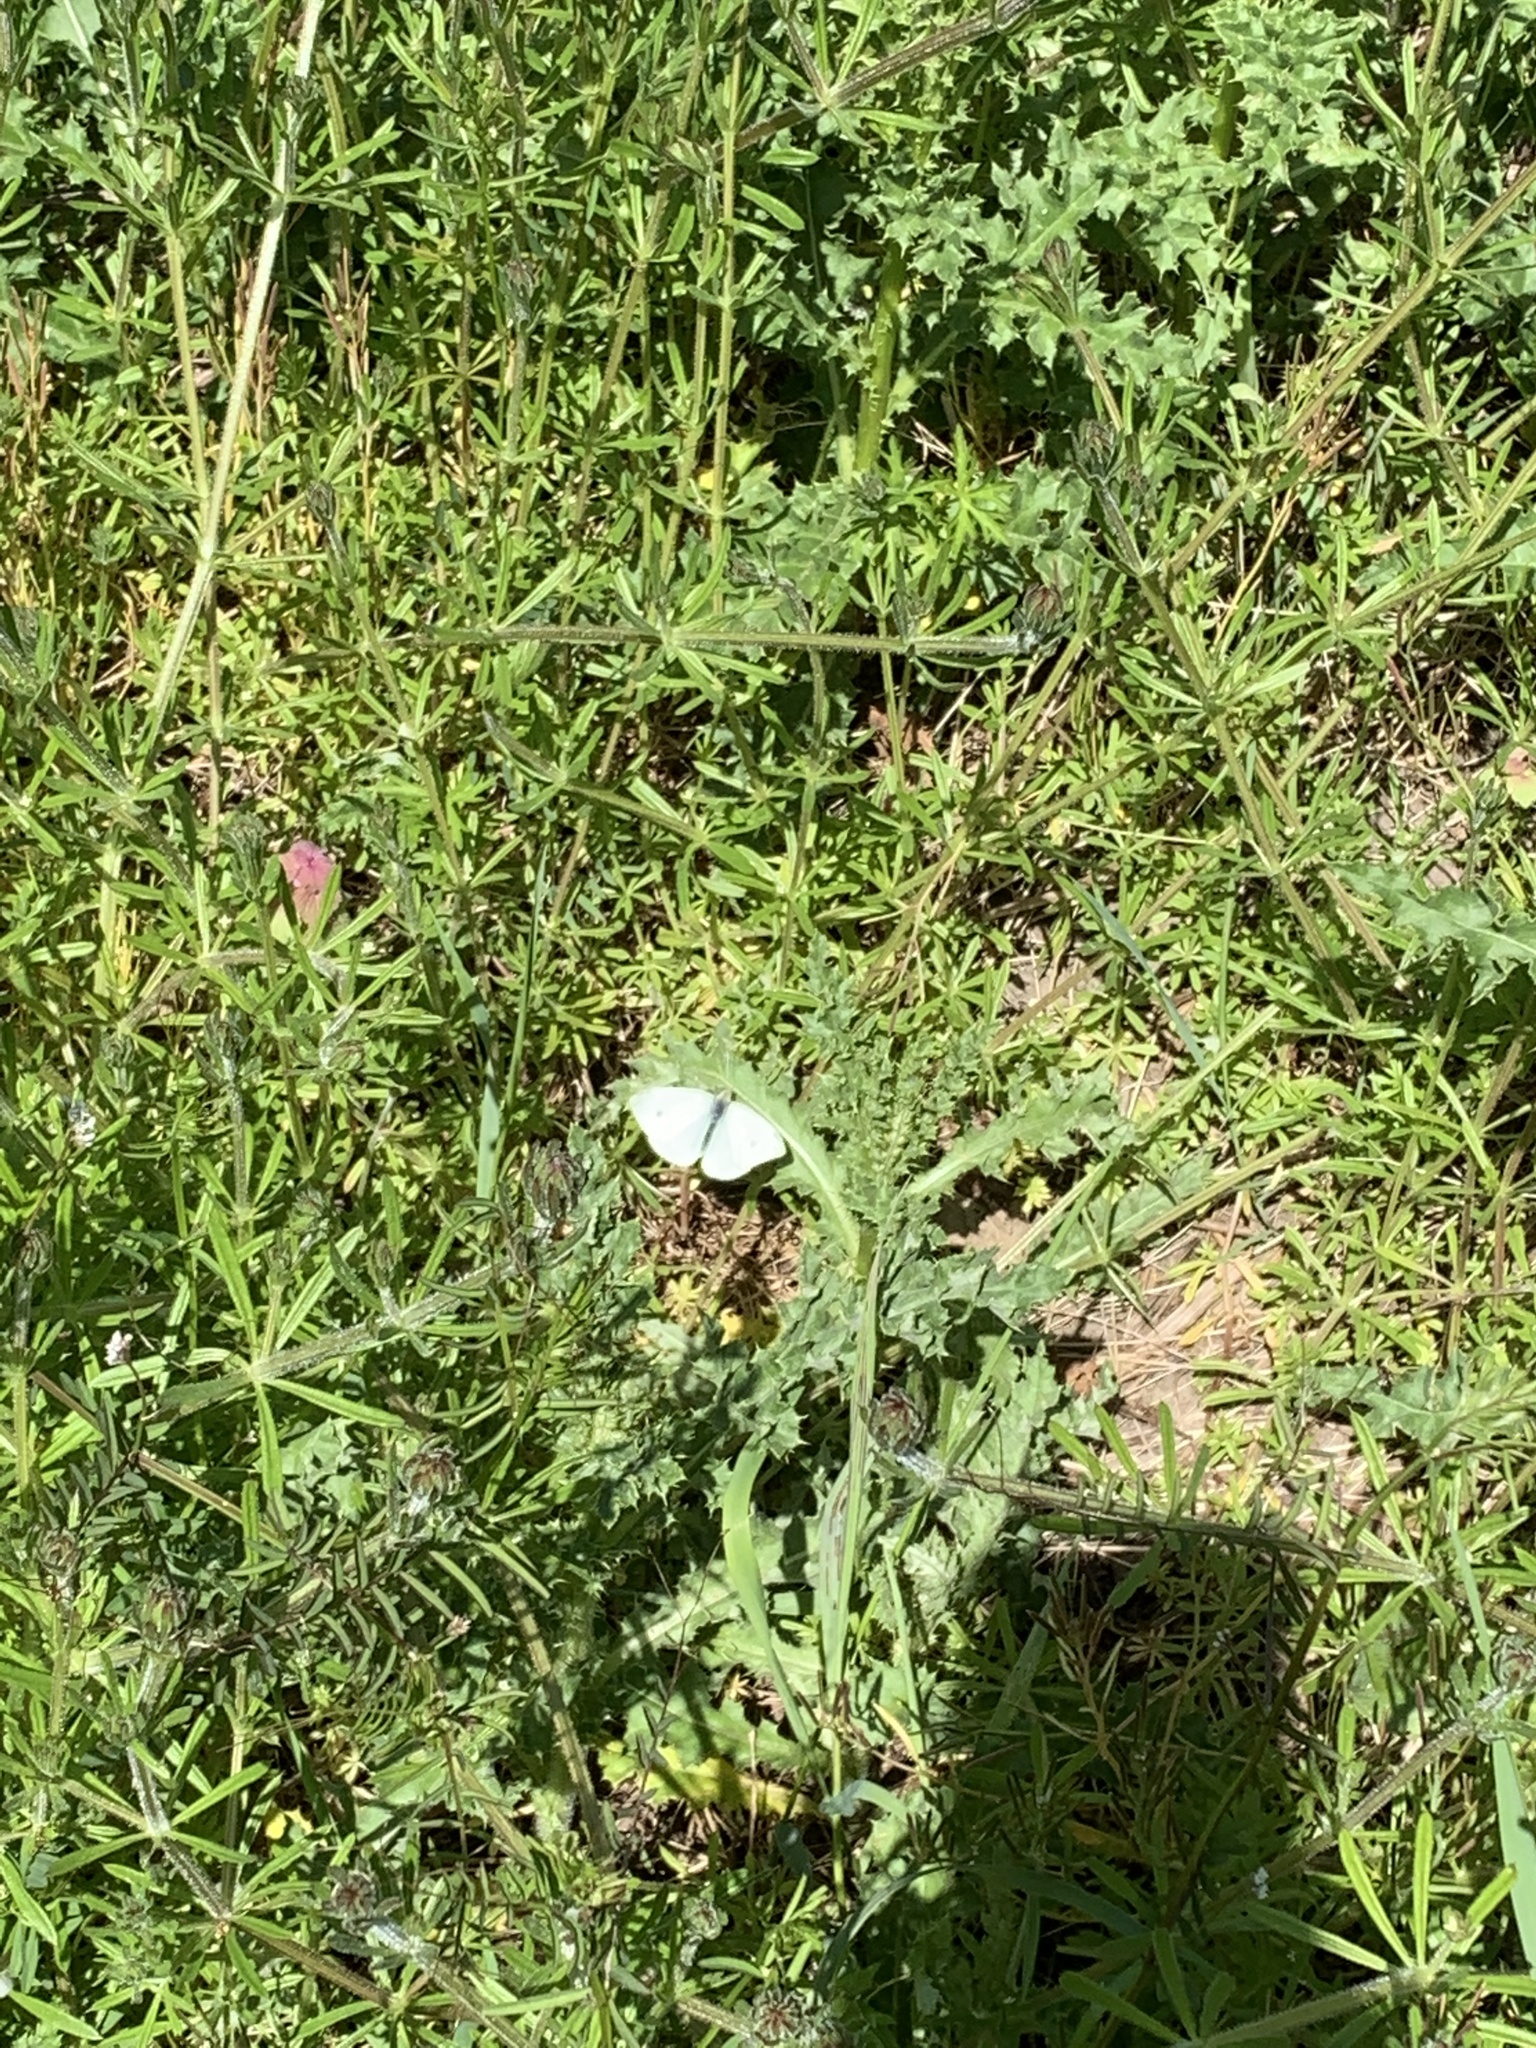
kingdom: Animalia
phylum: Arthropoda
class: Insecta
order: Lepidoptera
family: Pieridae
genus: Pieris
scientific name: Pieris rapae
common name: Small white
